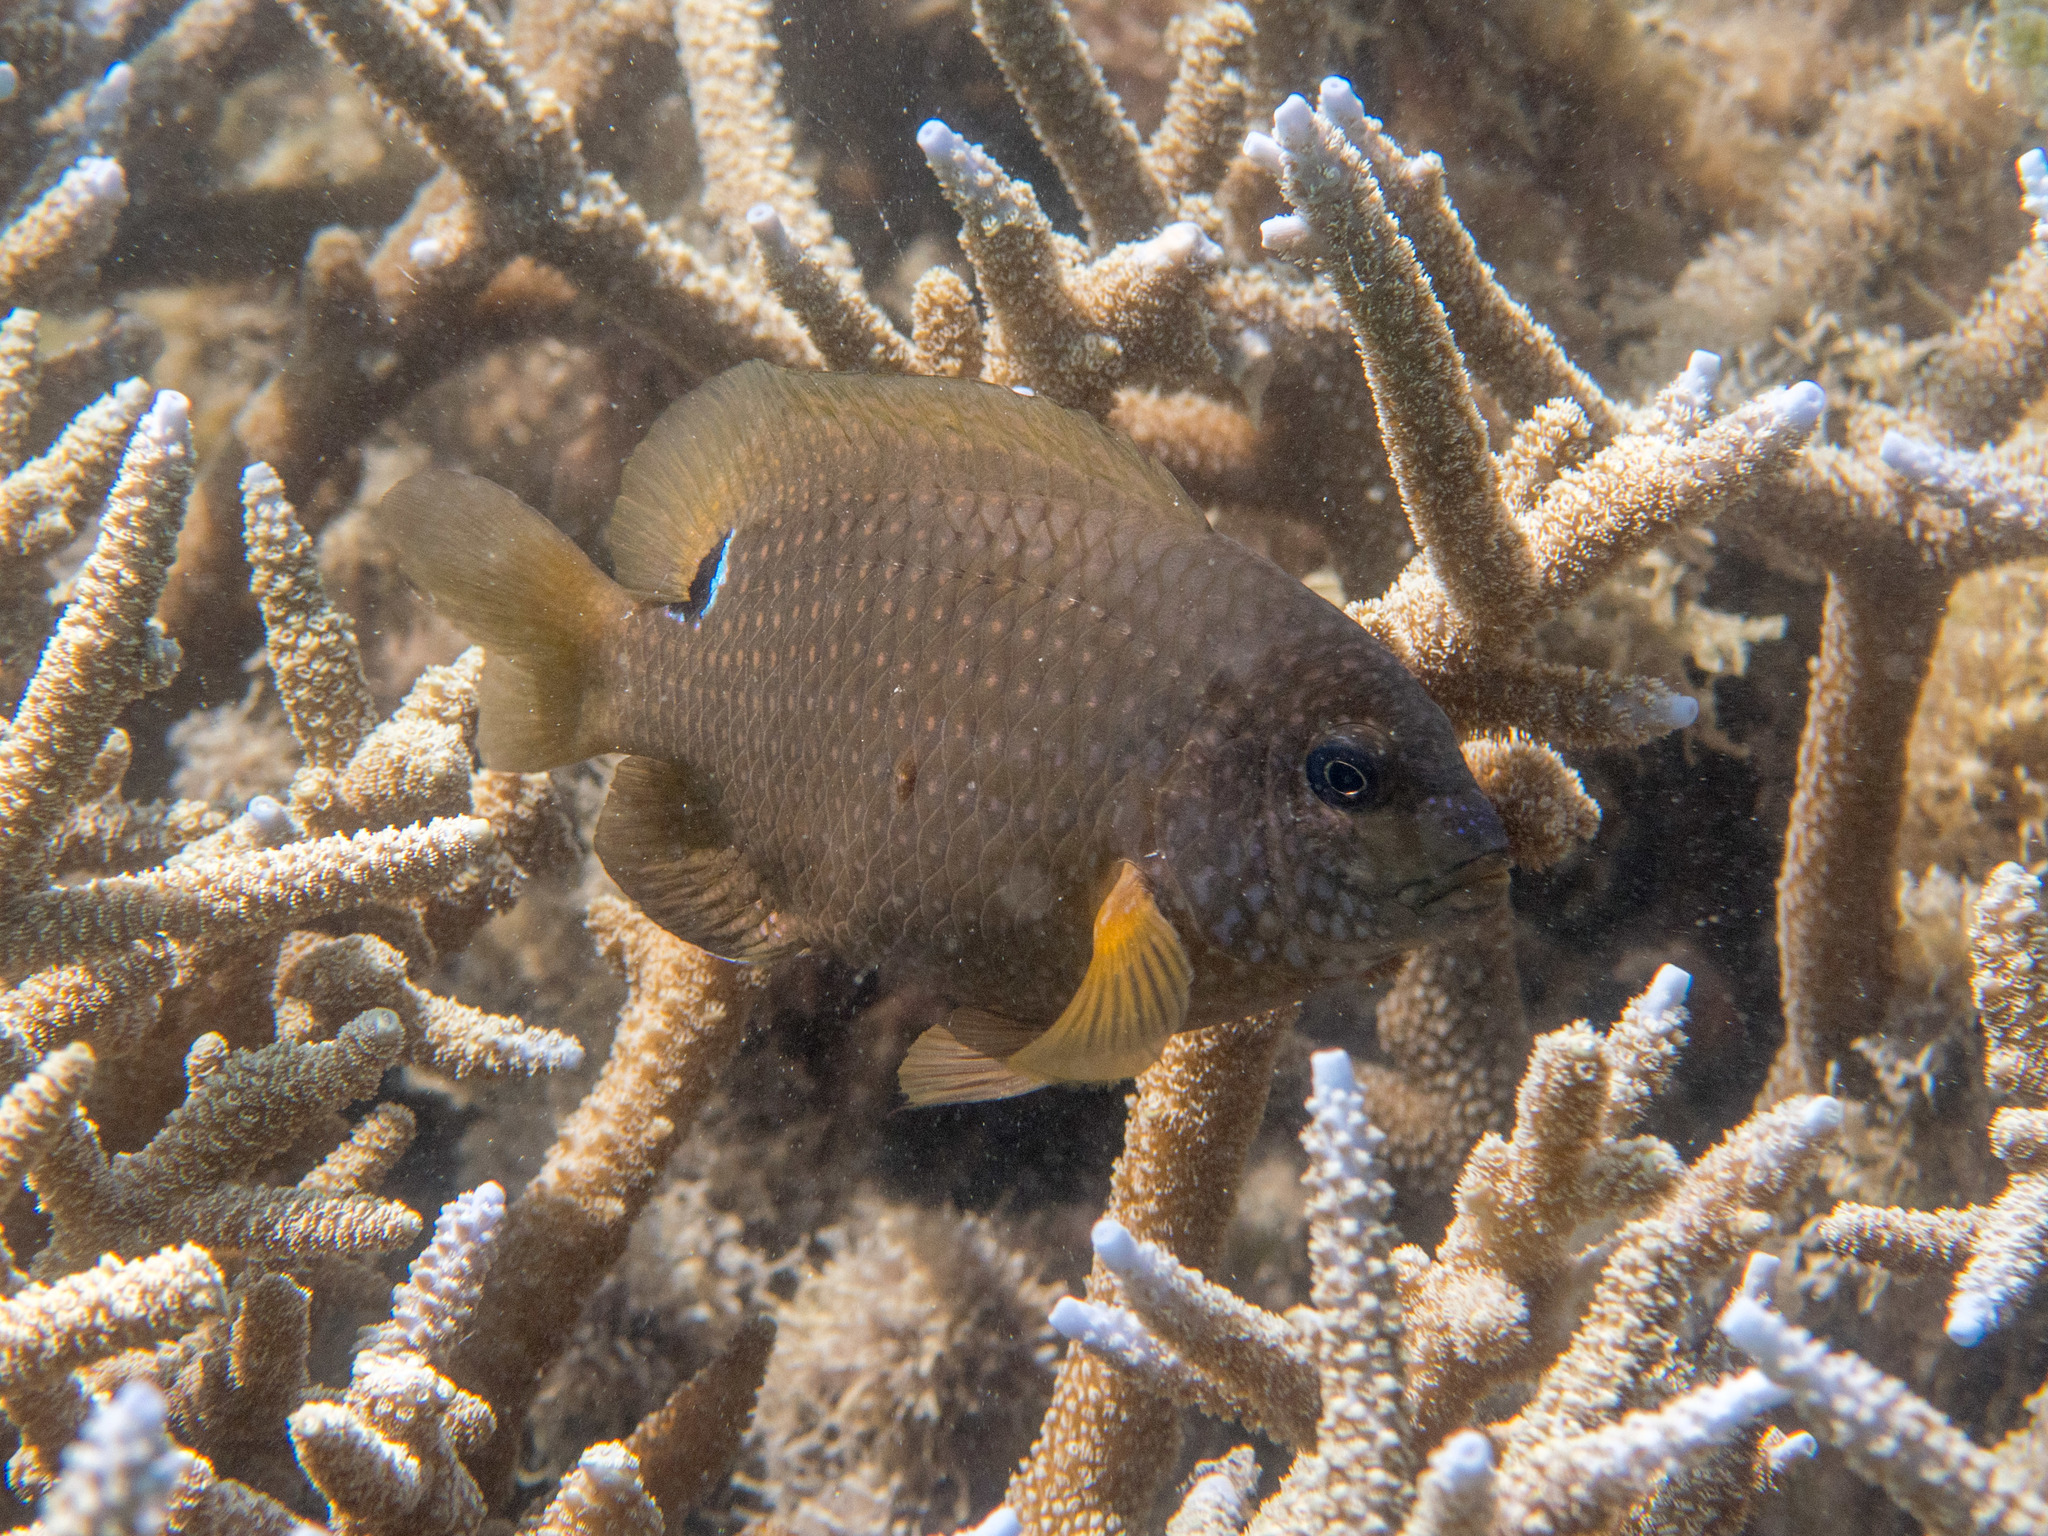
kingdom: Animalia
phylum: Chordata
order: Perciformes
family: Pomacentridae
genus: Stegastes
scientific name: Stegastes punctatus
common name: Blunt snout gregory
